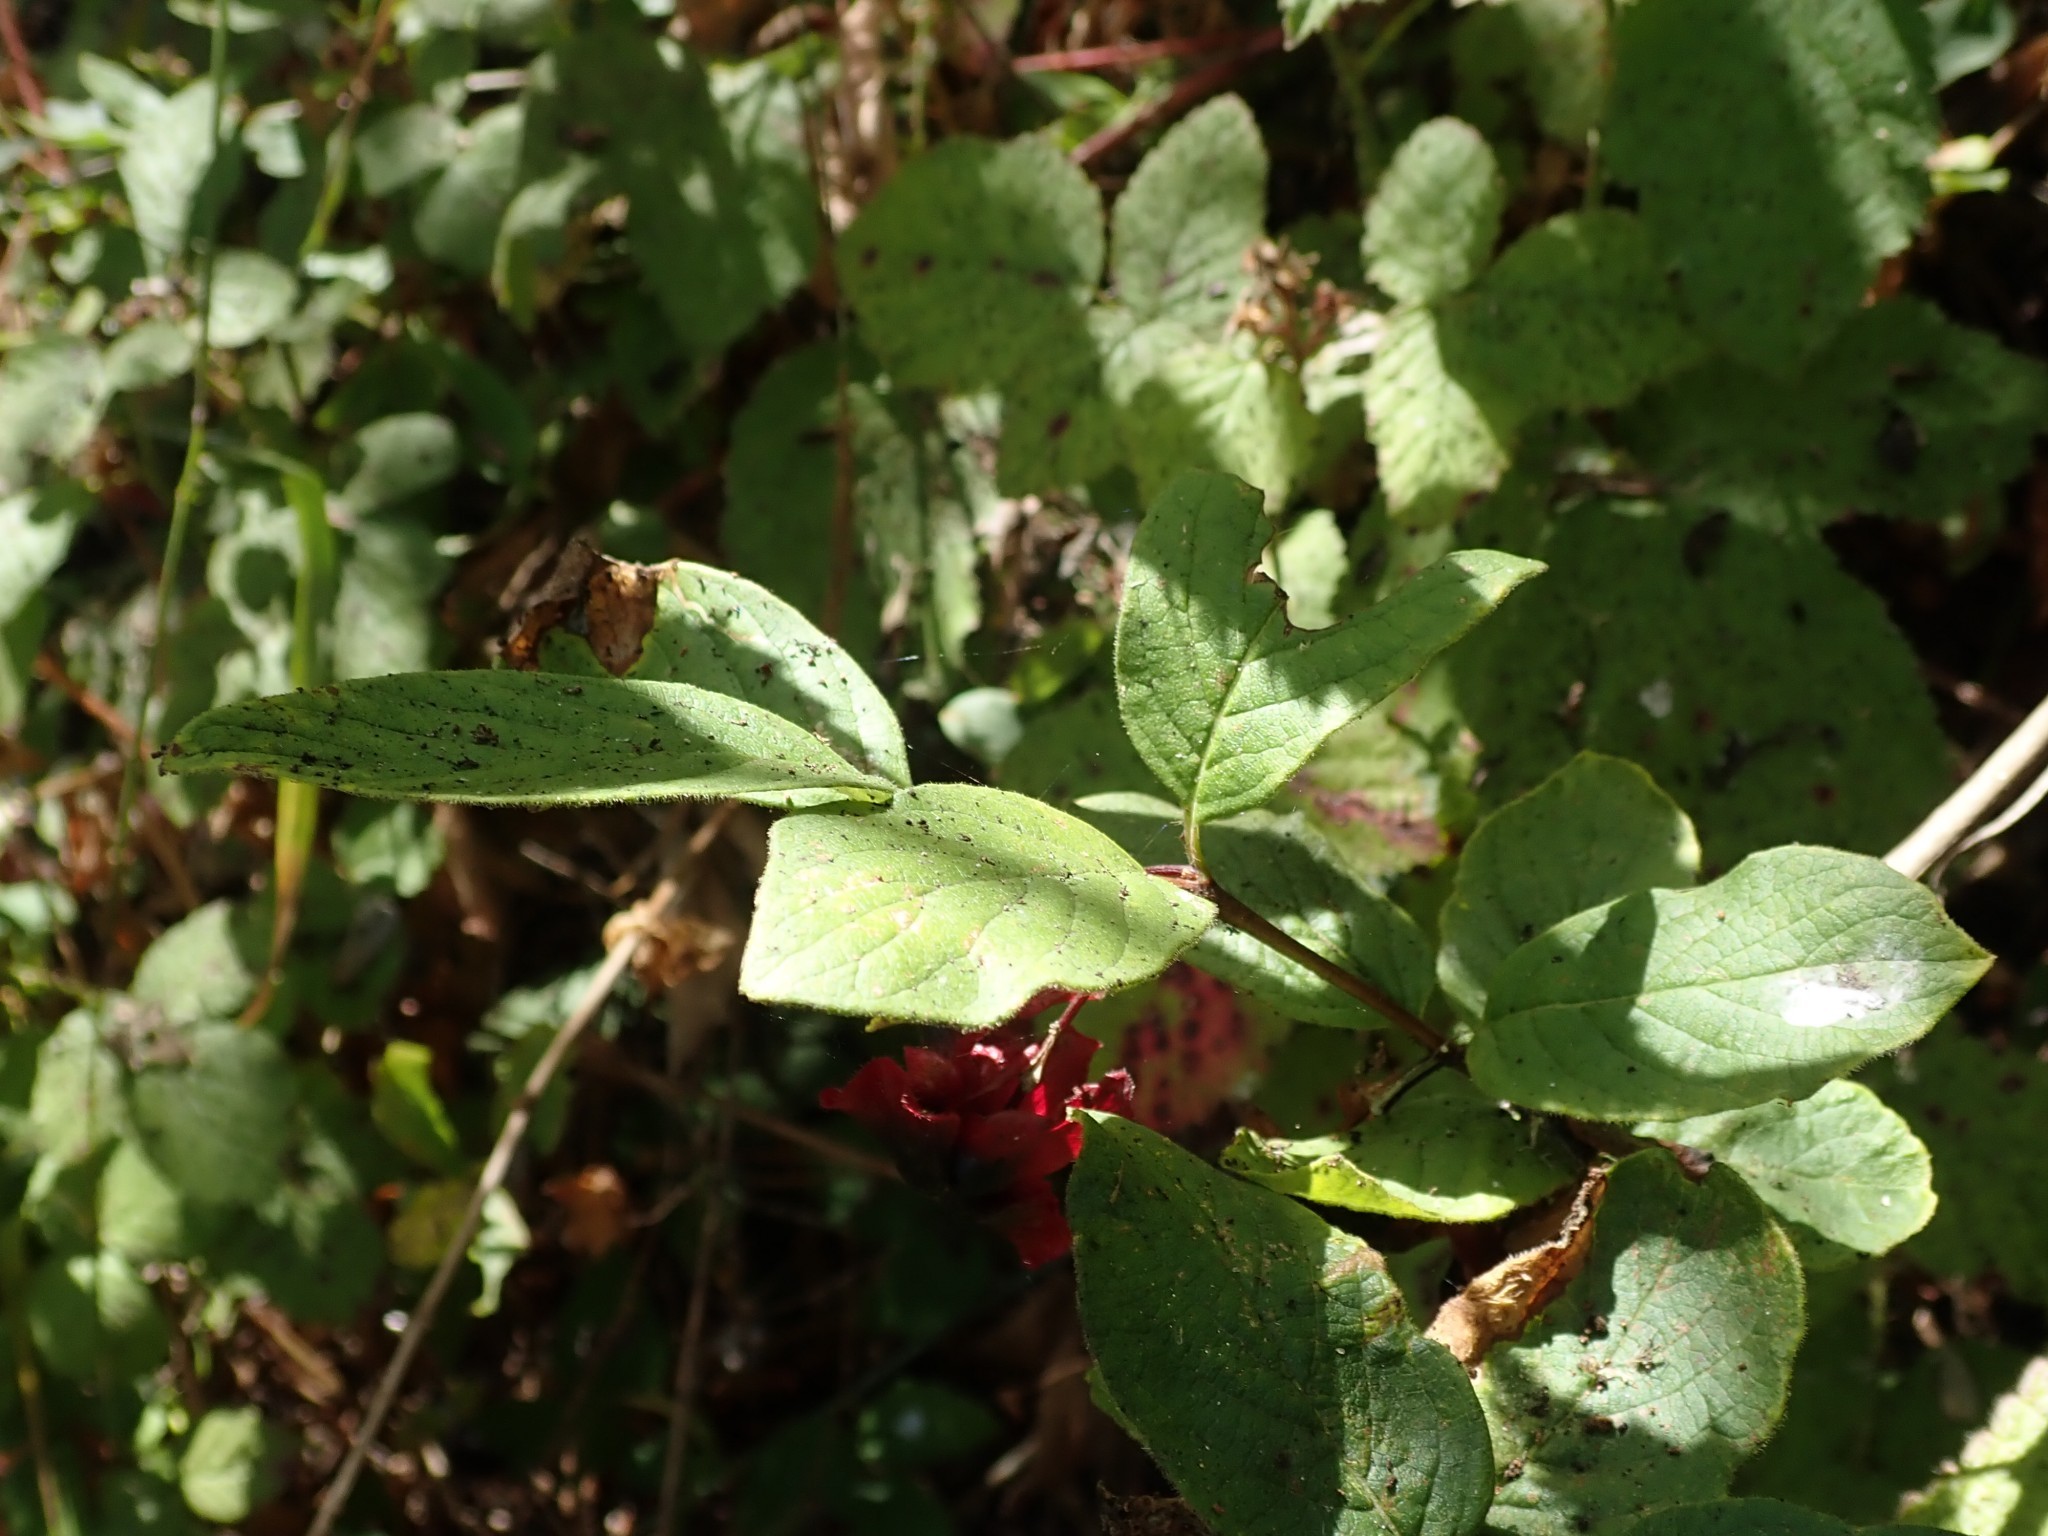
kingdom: Plantae
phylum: Tracheophyta
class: Magnoliopsida
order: Dipsacales
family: Caprifoliaceae
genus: Lonicera
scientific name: Lonicera involucrata
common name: Californian honeysuckle
